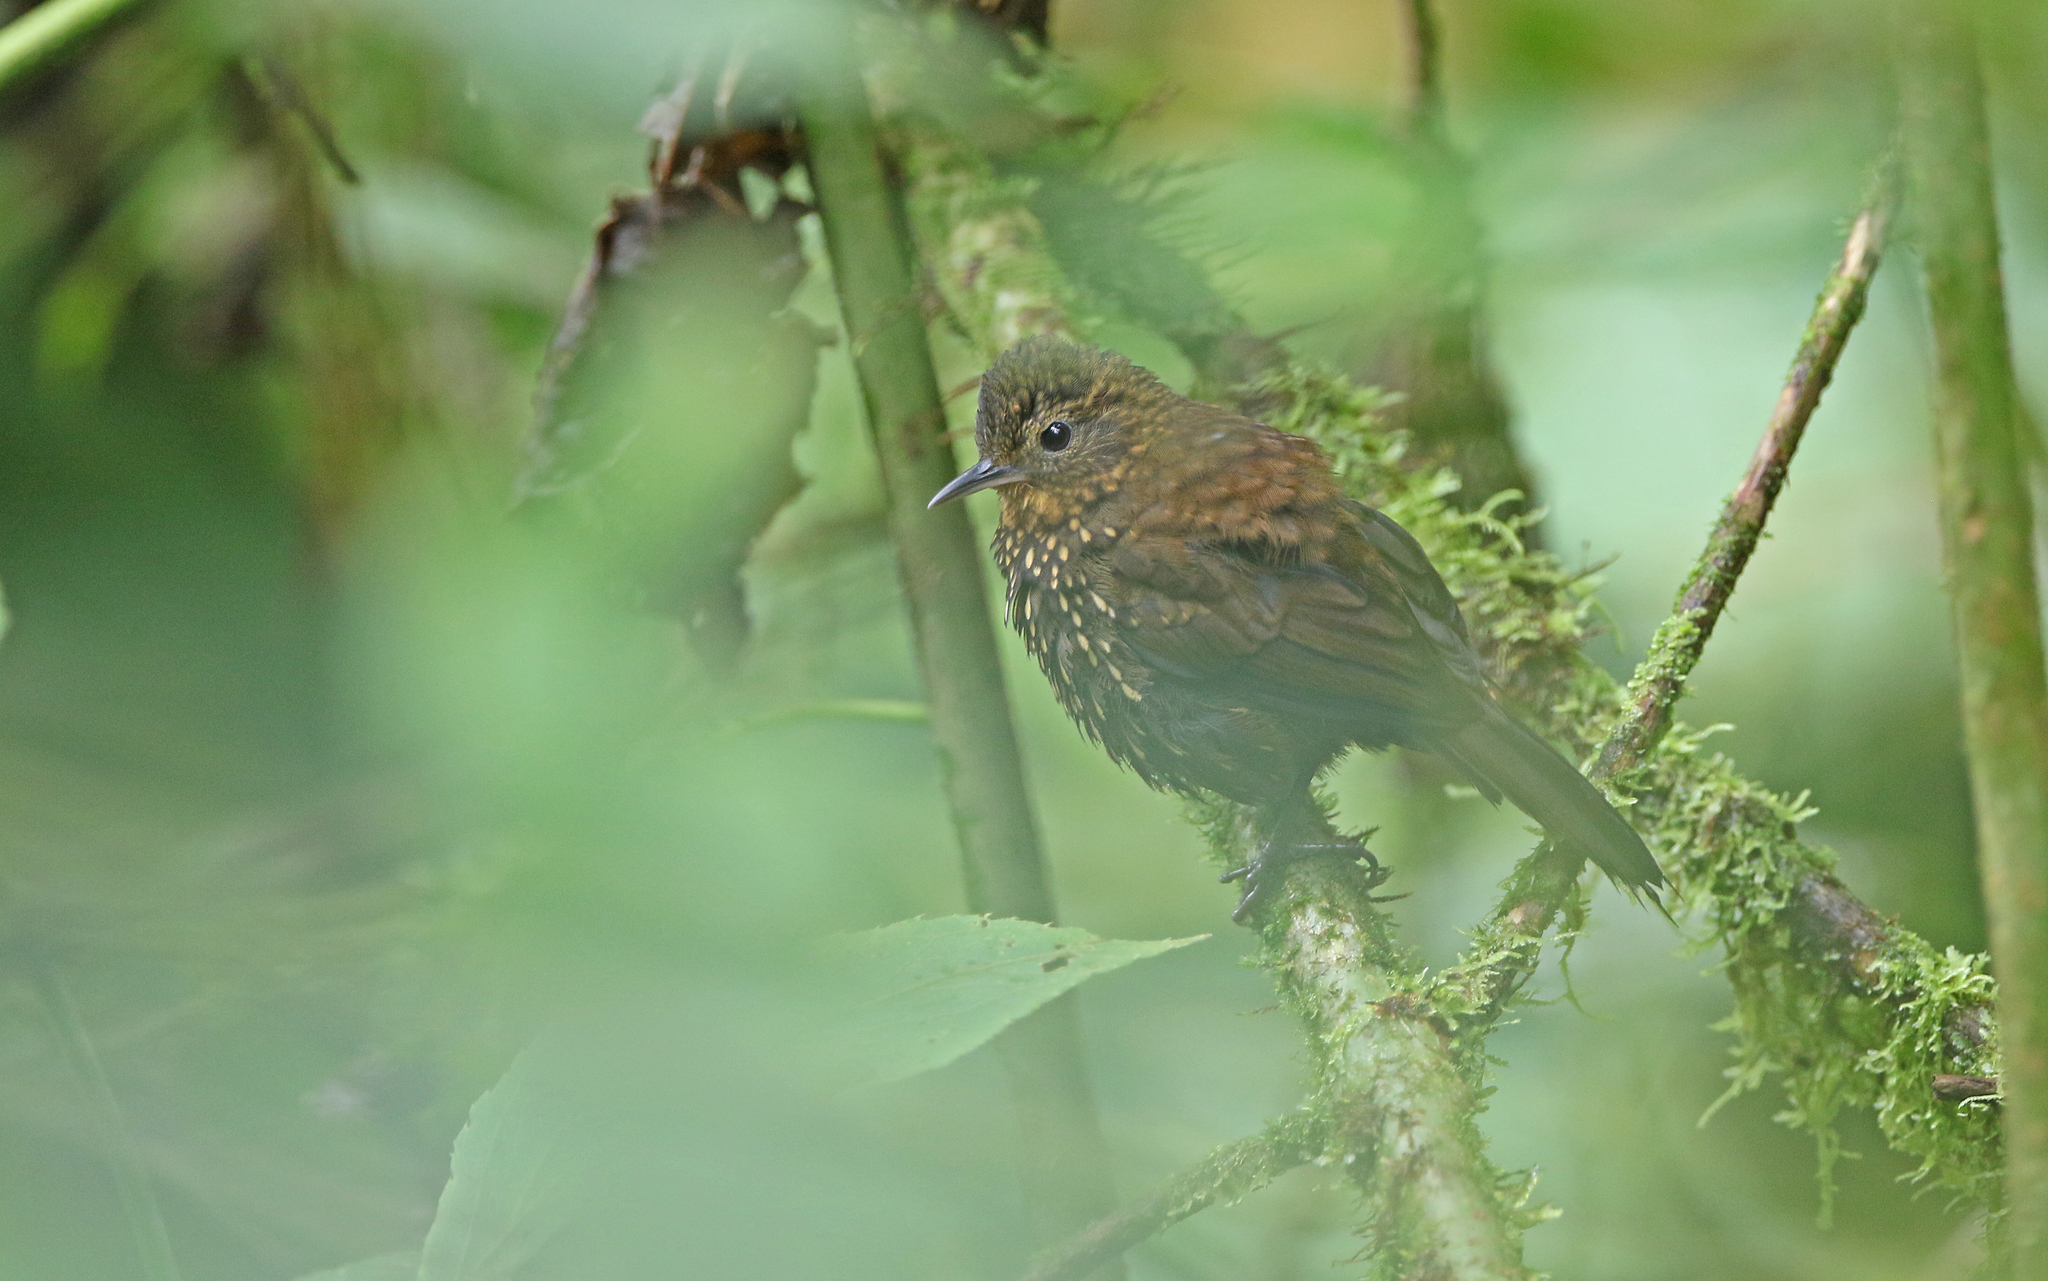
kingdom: Animalia
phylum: Chordata
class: Aves
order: Passeriformes
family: Furnariidae
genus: Premnoplex
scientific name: Premnoplex brunnescens
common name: Spotted barbtail
